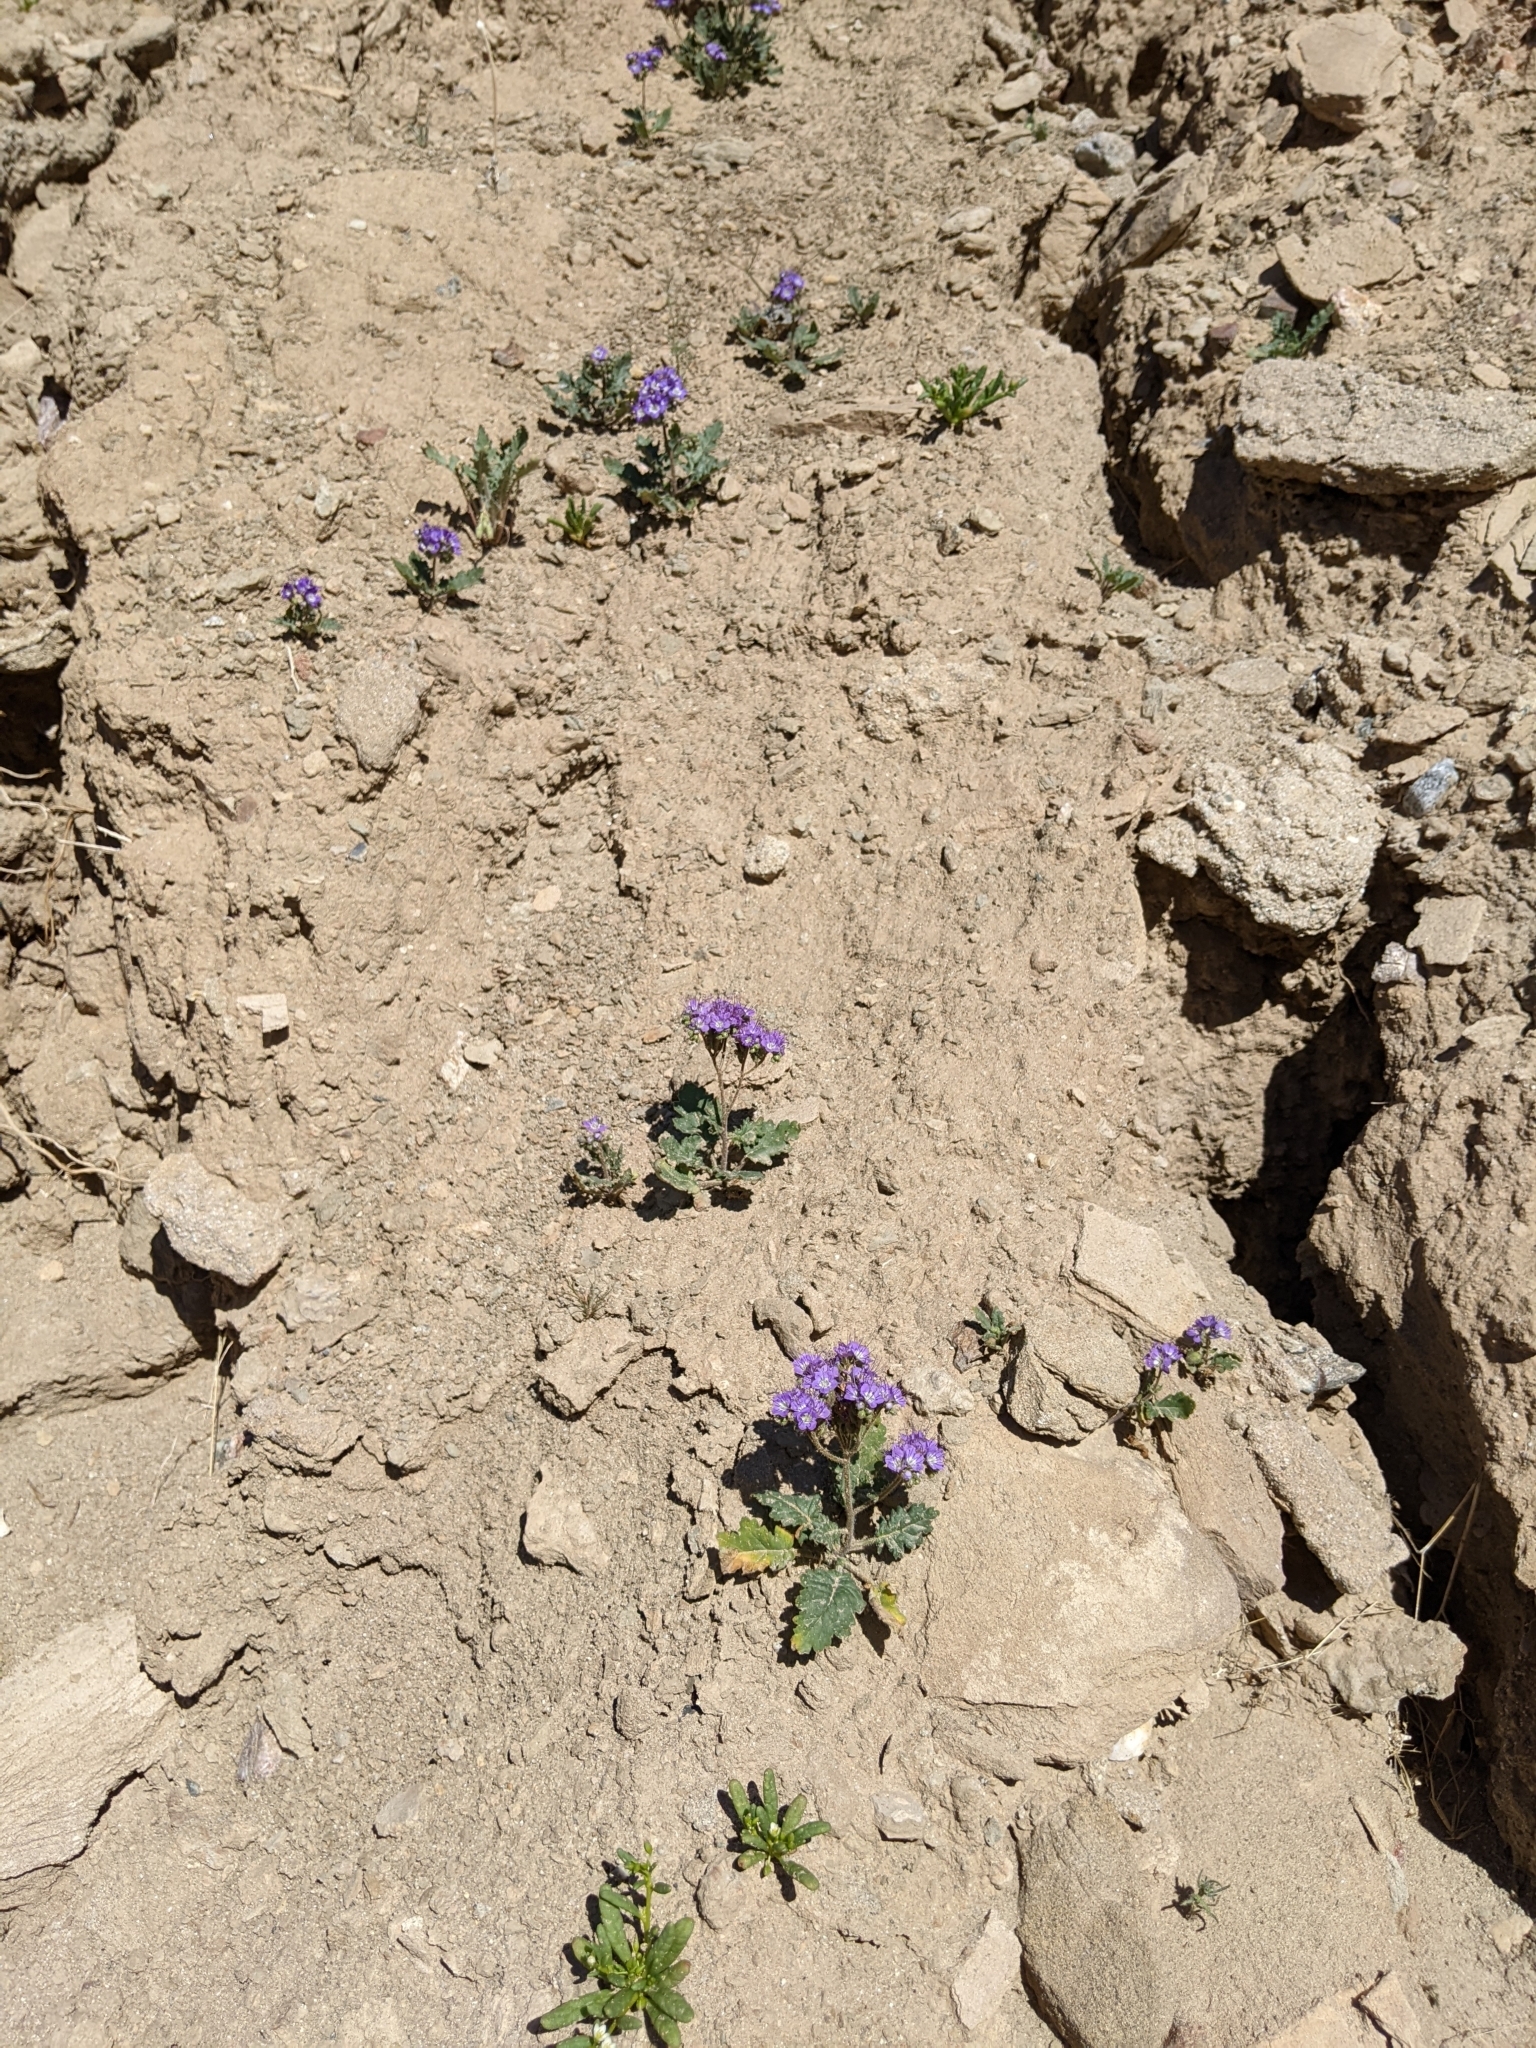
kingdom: Plantae
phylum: Tracheophyta
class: Magnoliopsida
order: Boraginales
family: Hydrophyllaceae
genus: Phacelia
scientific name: Phacelia crenulata
